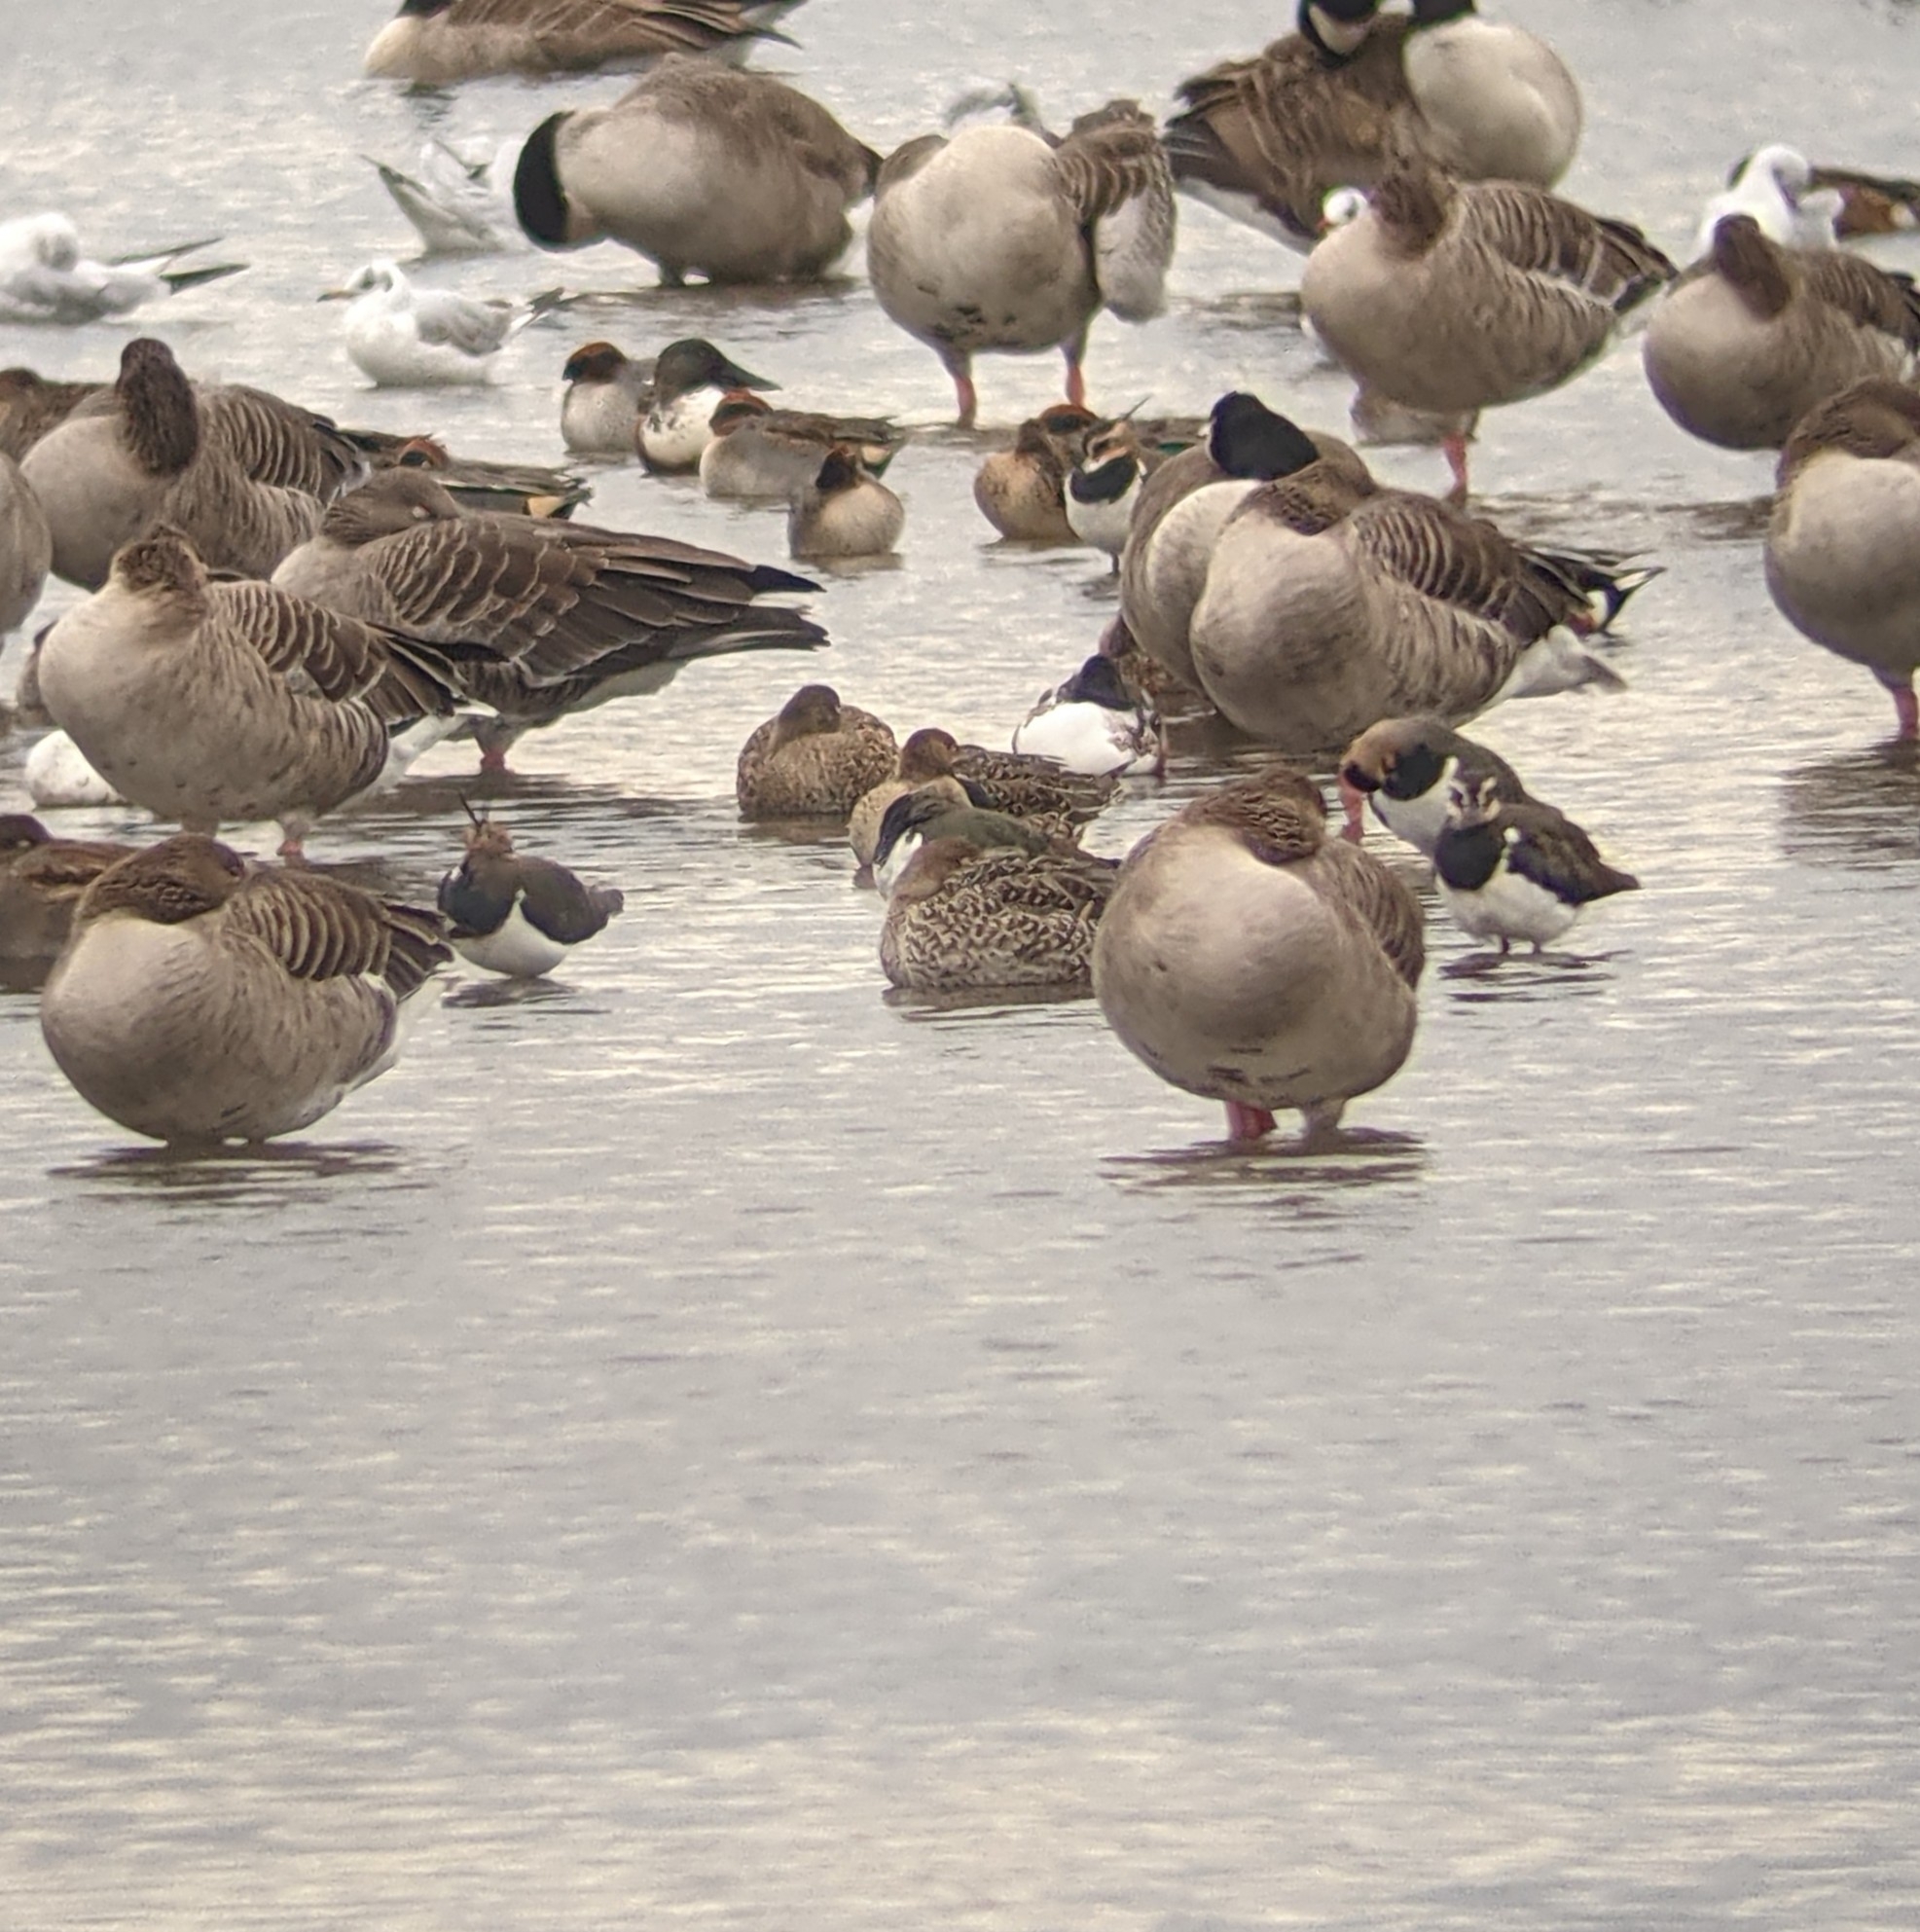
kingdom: Animalia
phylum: Chordata
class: Aves
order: Charadriiformes
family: Charadriidae
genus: Vanellus
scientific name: Vanellus vanellus
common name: Northern lapwing
